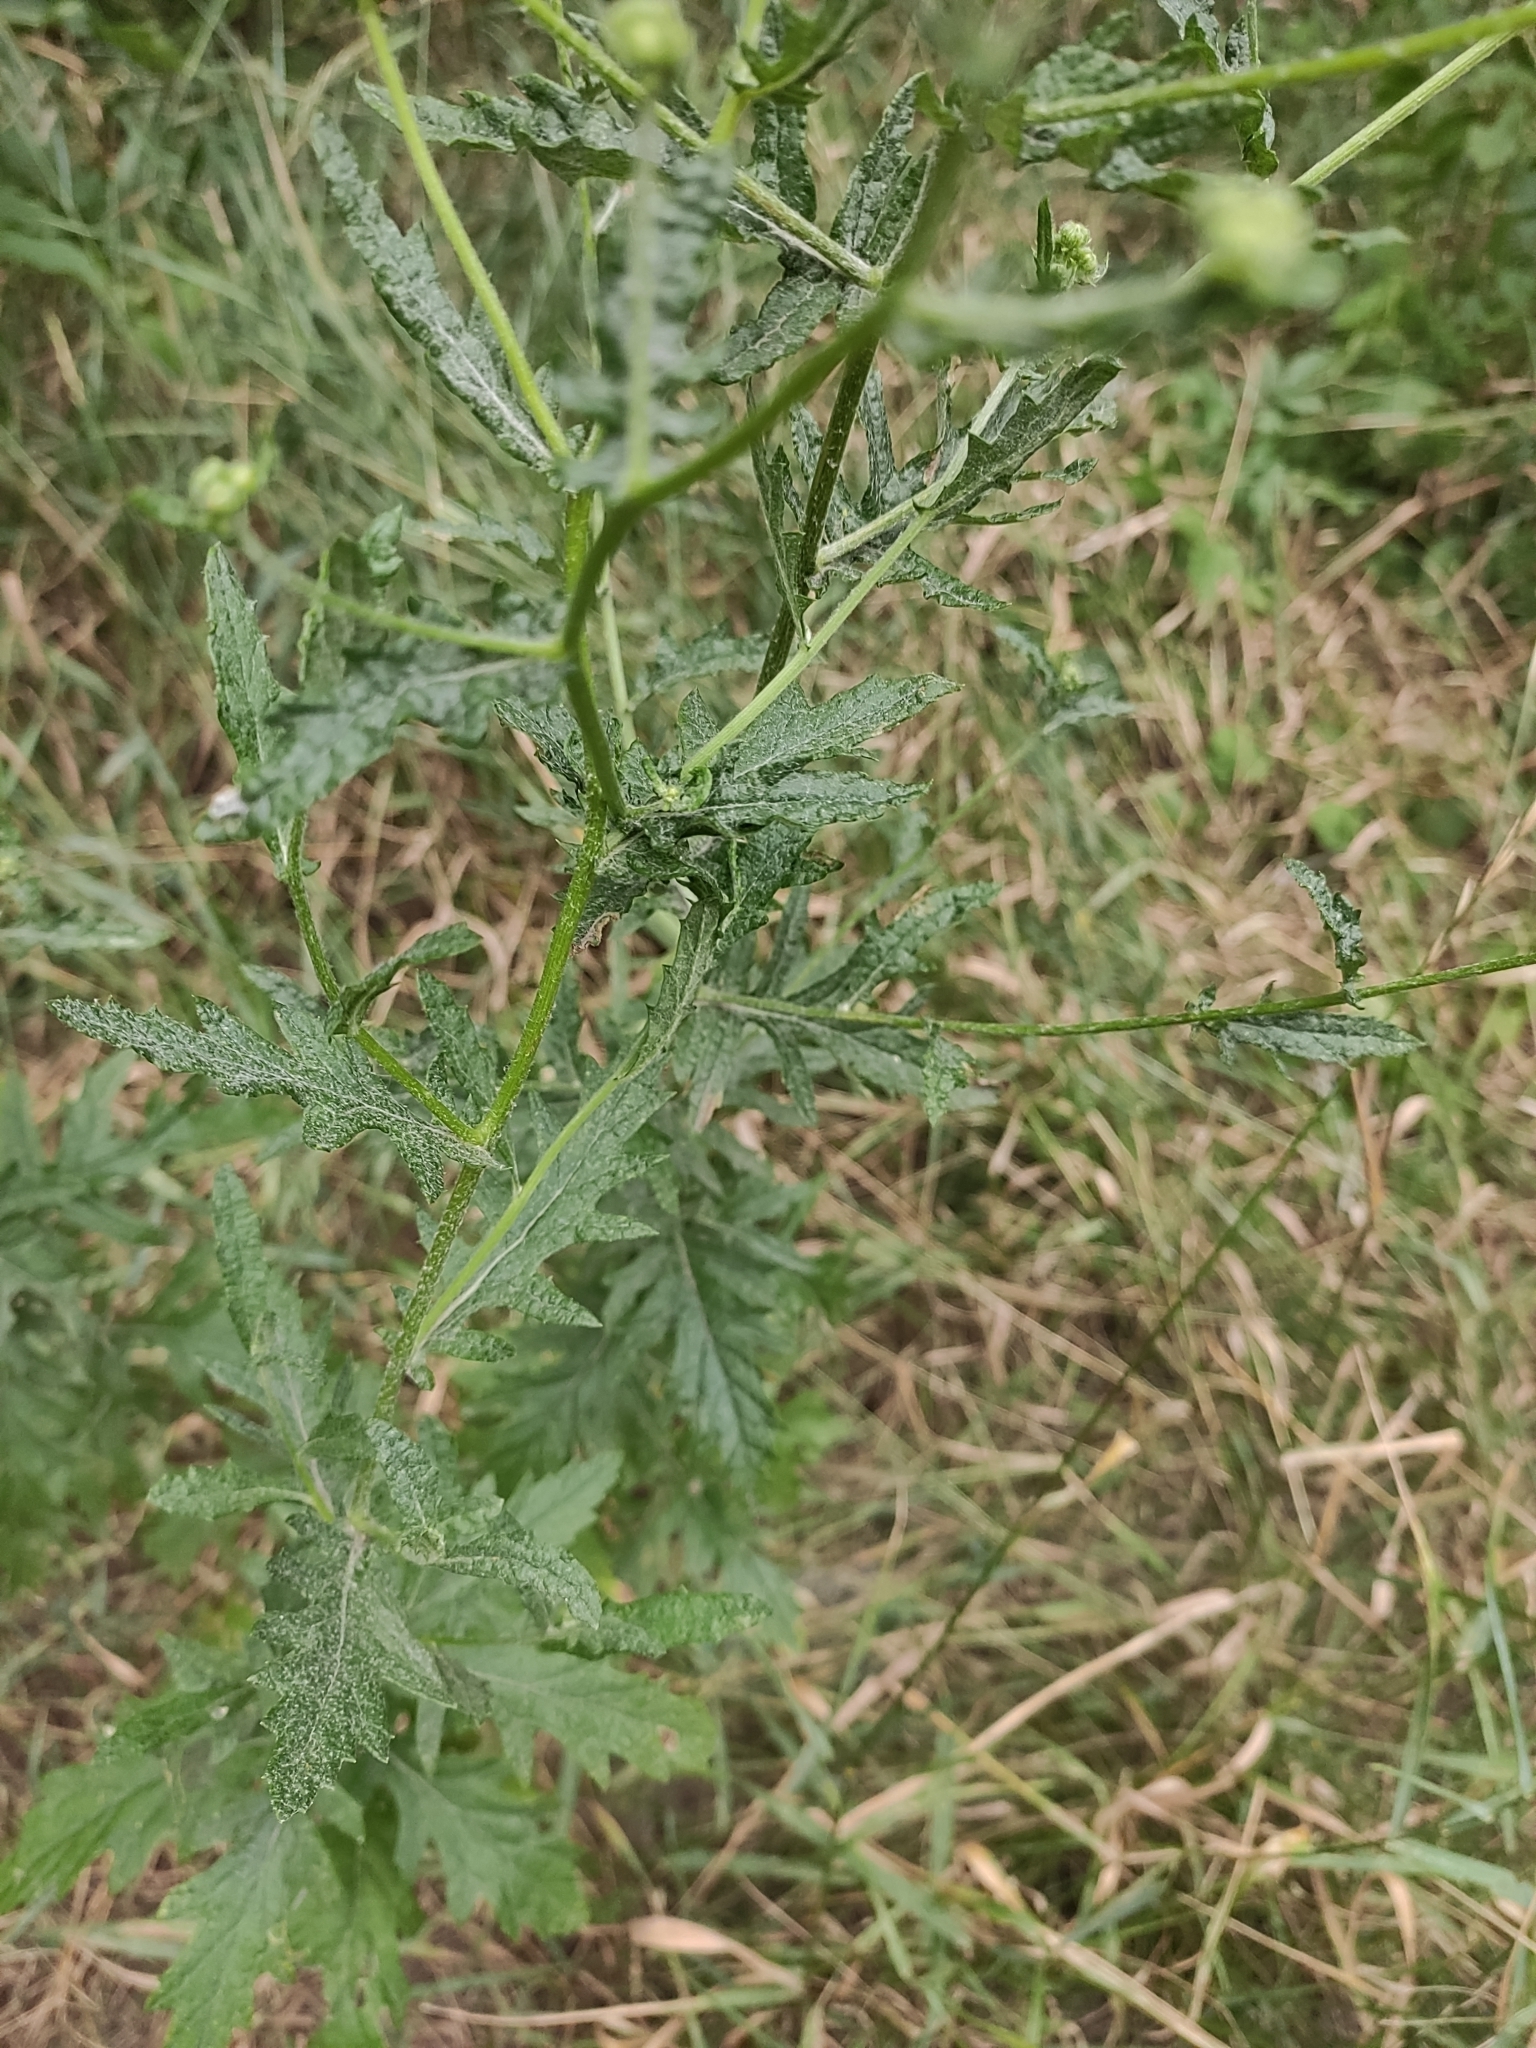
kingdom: Plantae
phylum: Tracheophyta
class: Magnoliopsida
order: Asterales
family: Asteraceae
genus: Jacobaea
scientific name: Jacobaea erucifolia
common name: Hoary ragwort
